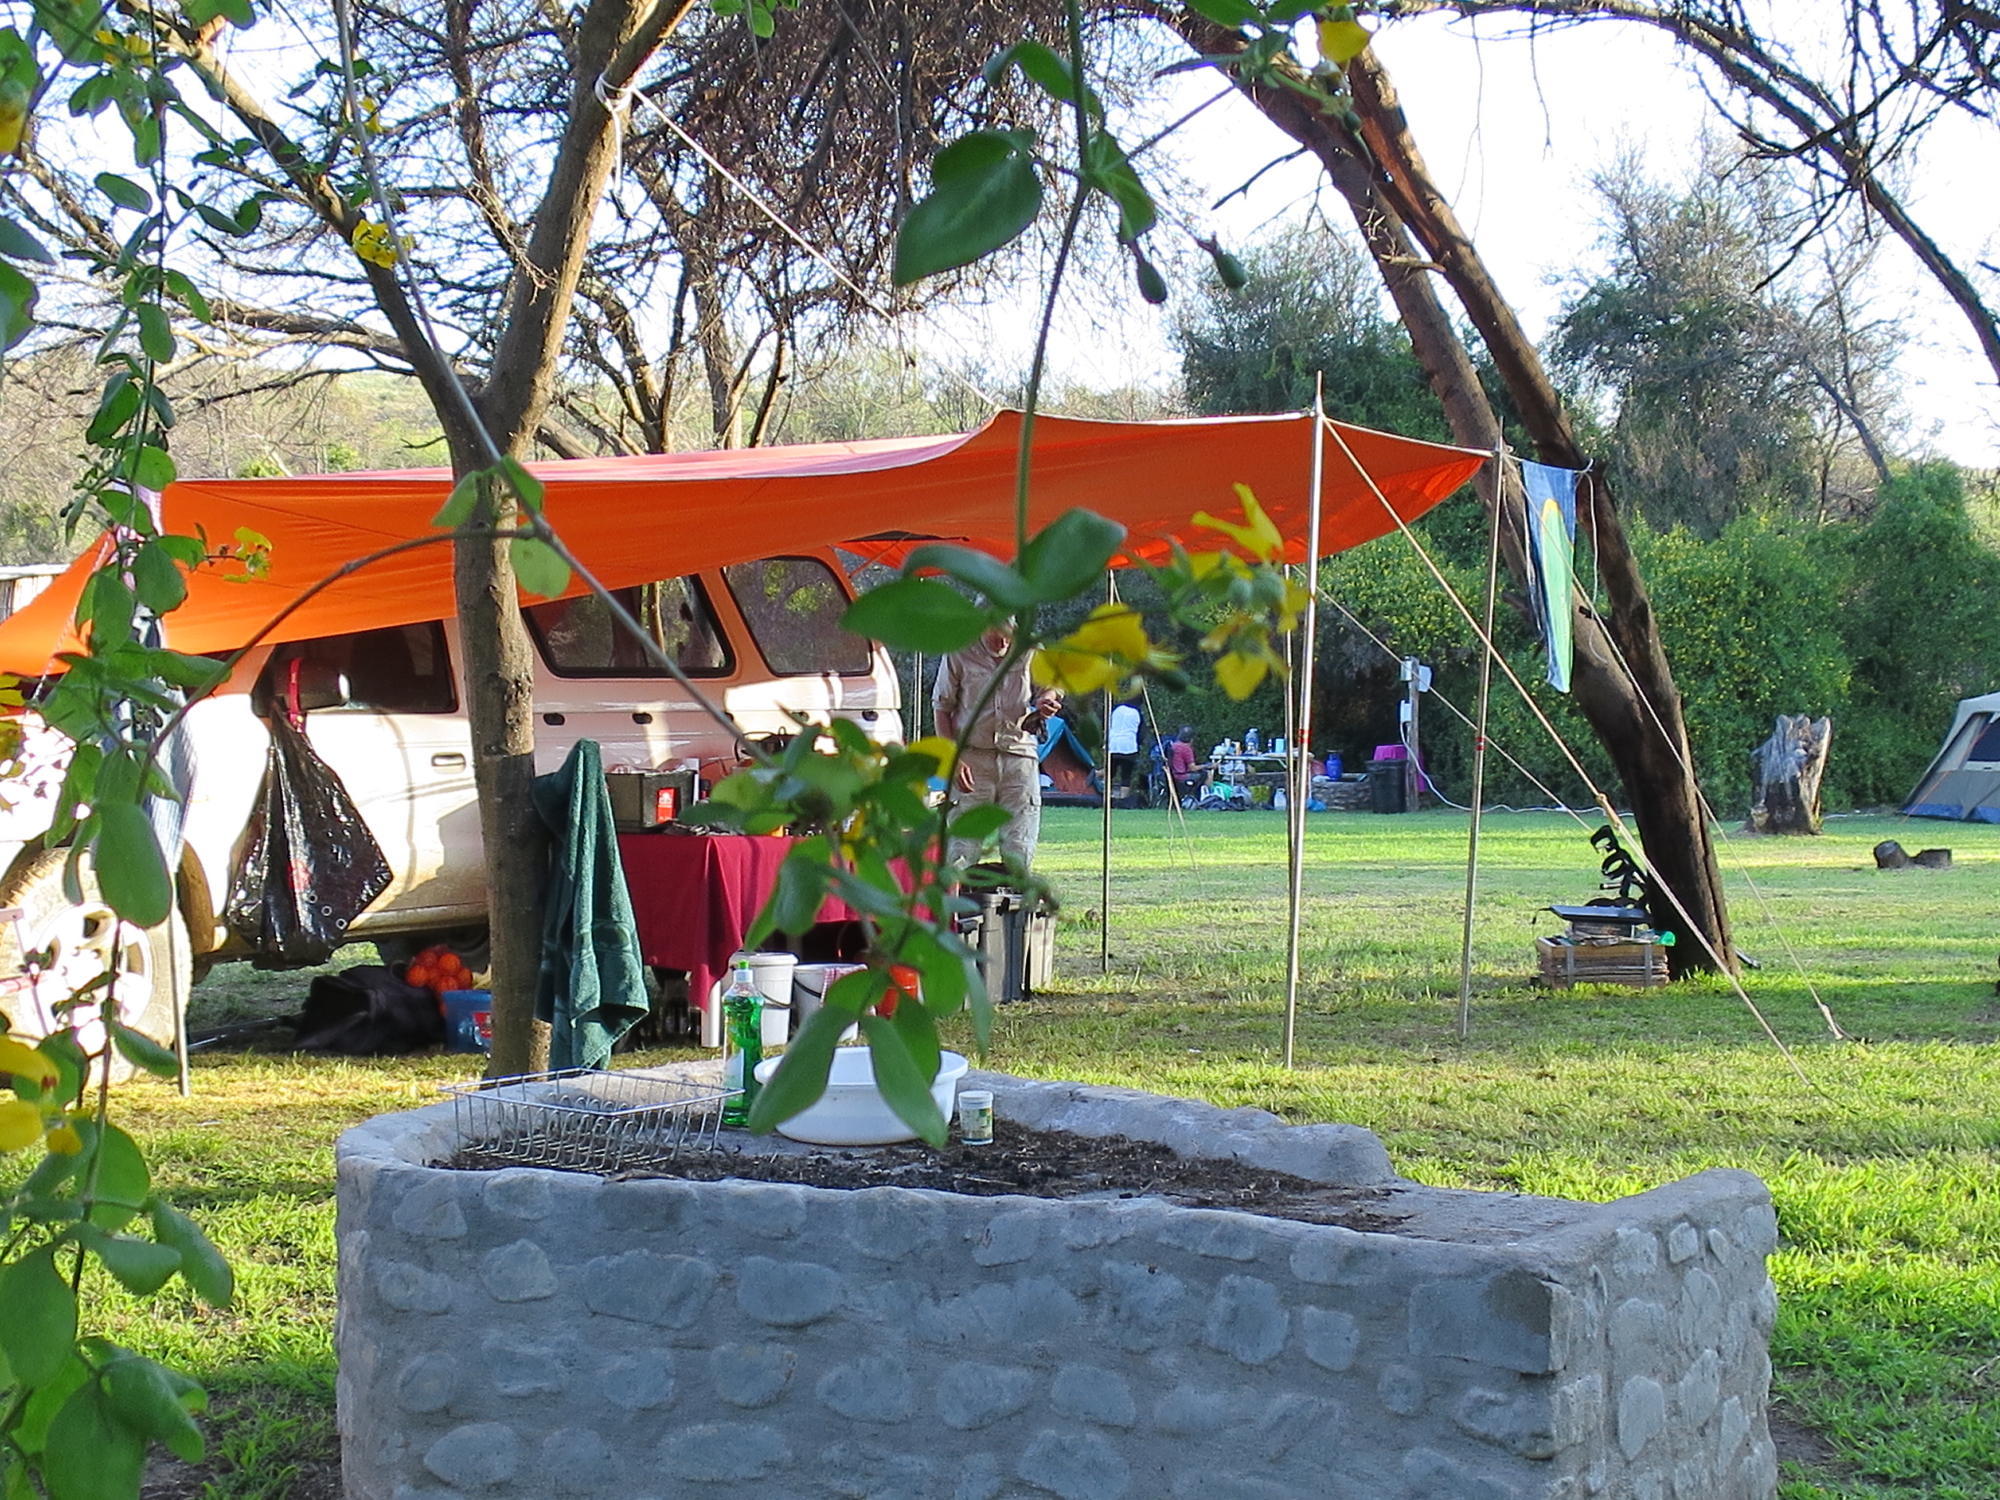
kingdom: Plantae
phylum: Tracheophyta
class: Magnoliopsida
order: Fabales
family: Fabaceae
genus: Vachellia
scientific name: Vachellia karroo
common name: Sweet thorn
